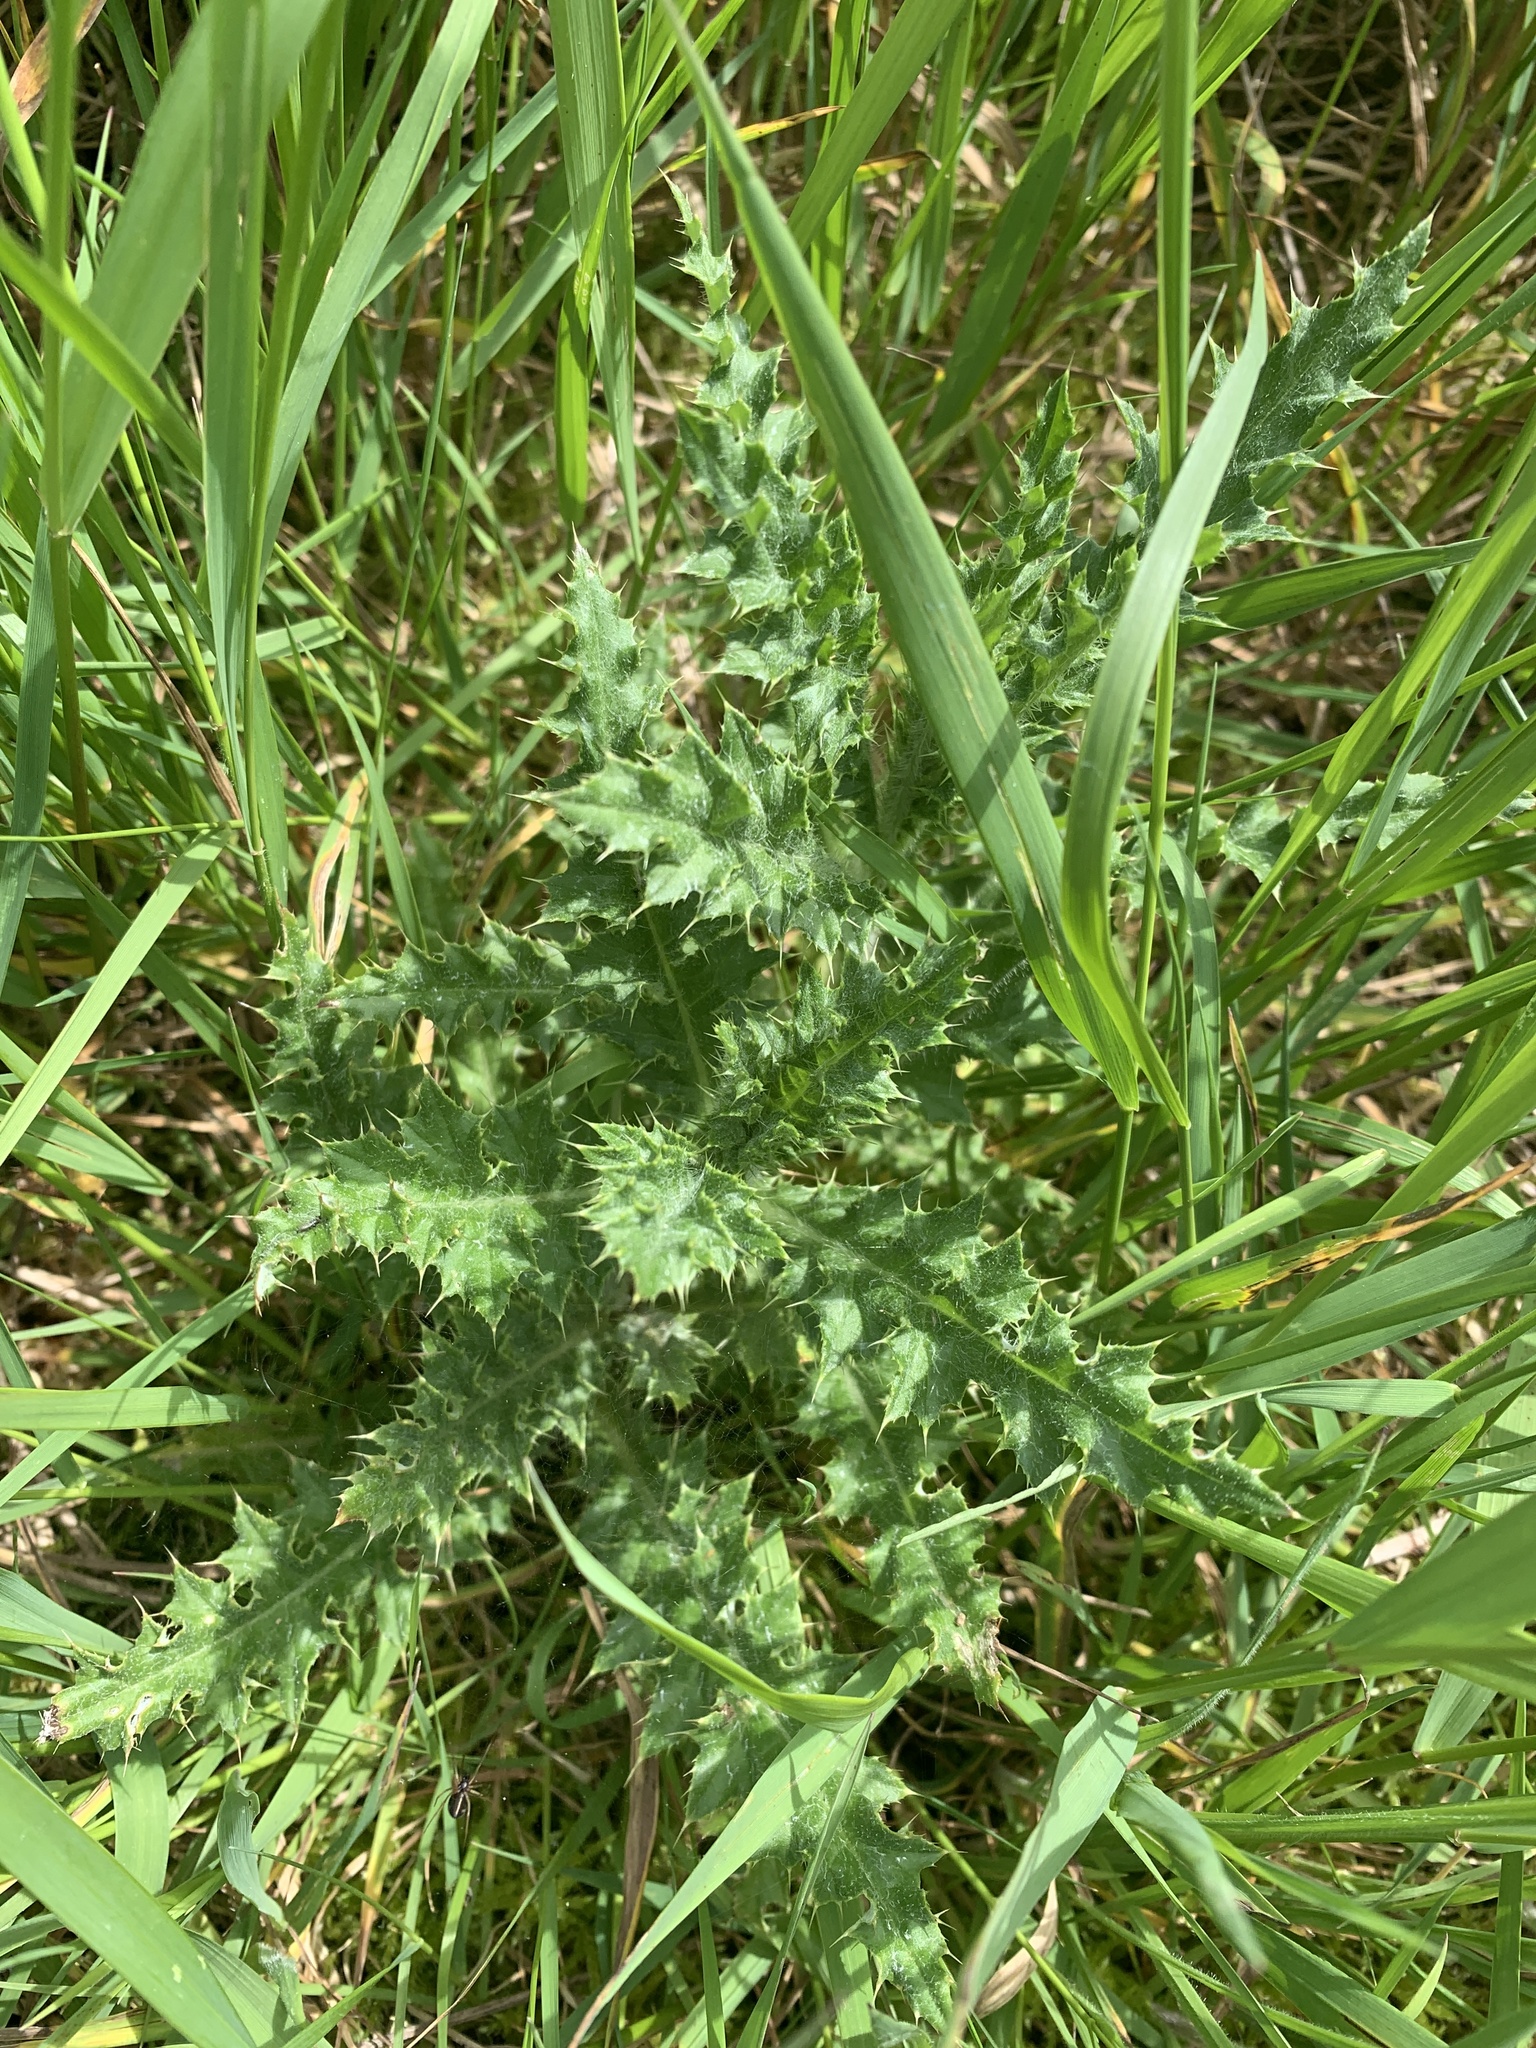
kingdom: Plantae
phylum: Tracheophyta
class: Magnoliopsida
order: Asterales
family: Asteraceae
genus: Cirsium
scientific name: Cirsium arvense
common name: Creeping thistle
